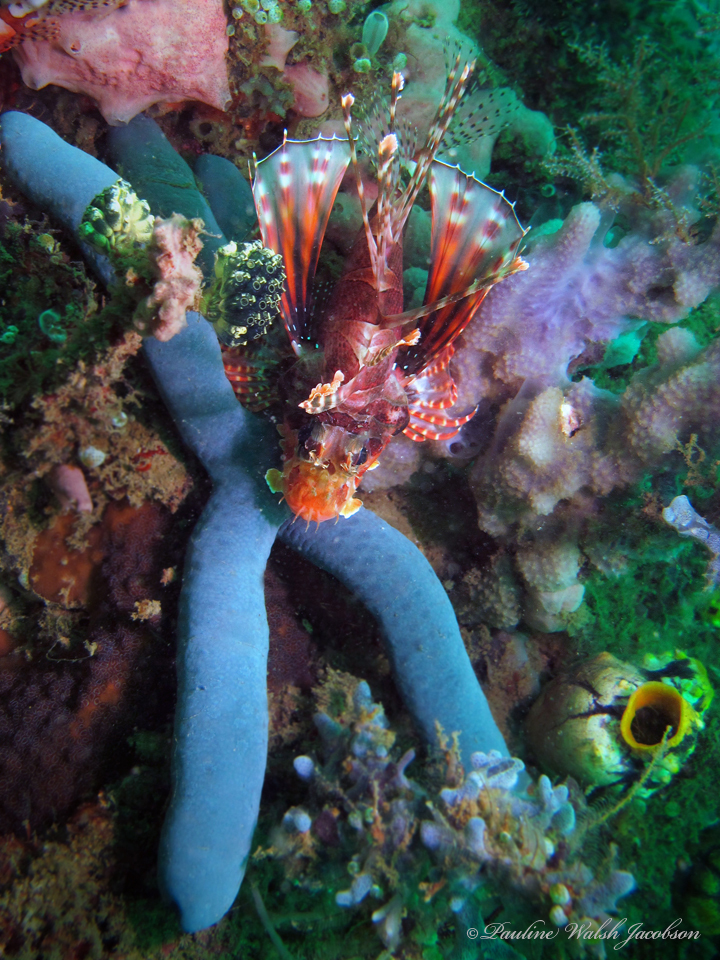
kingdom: Animalia
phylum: Echinodermata
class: Asteroidea
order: Valvatida
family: Ophidiasteridae
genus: Linckia
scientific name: Linckia laevigata
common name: Azure sea star
